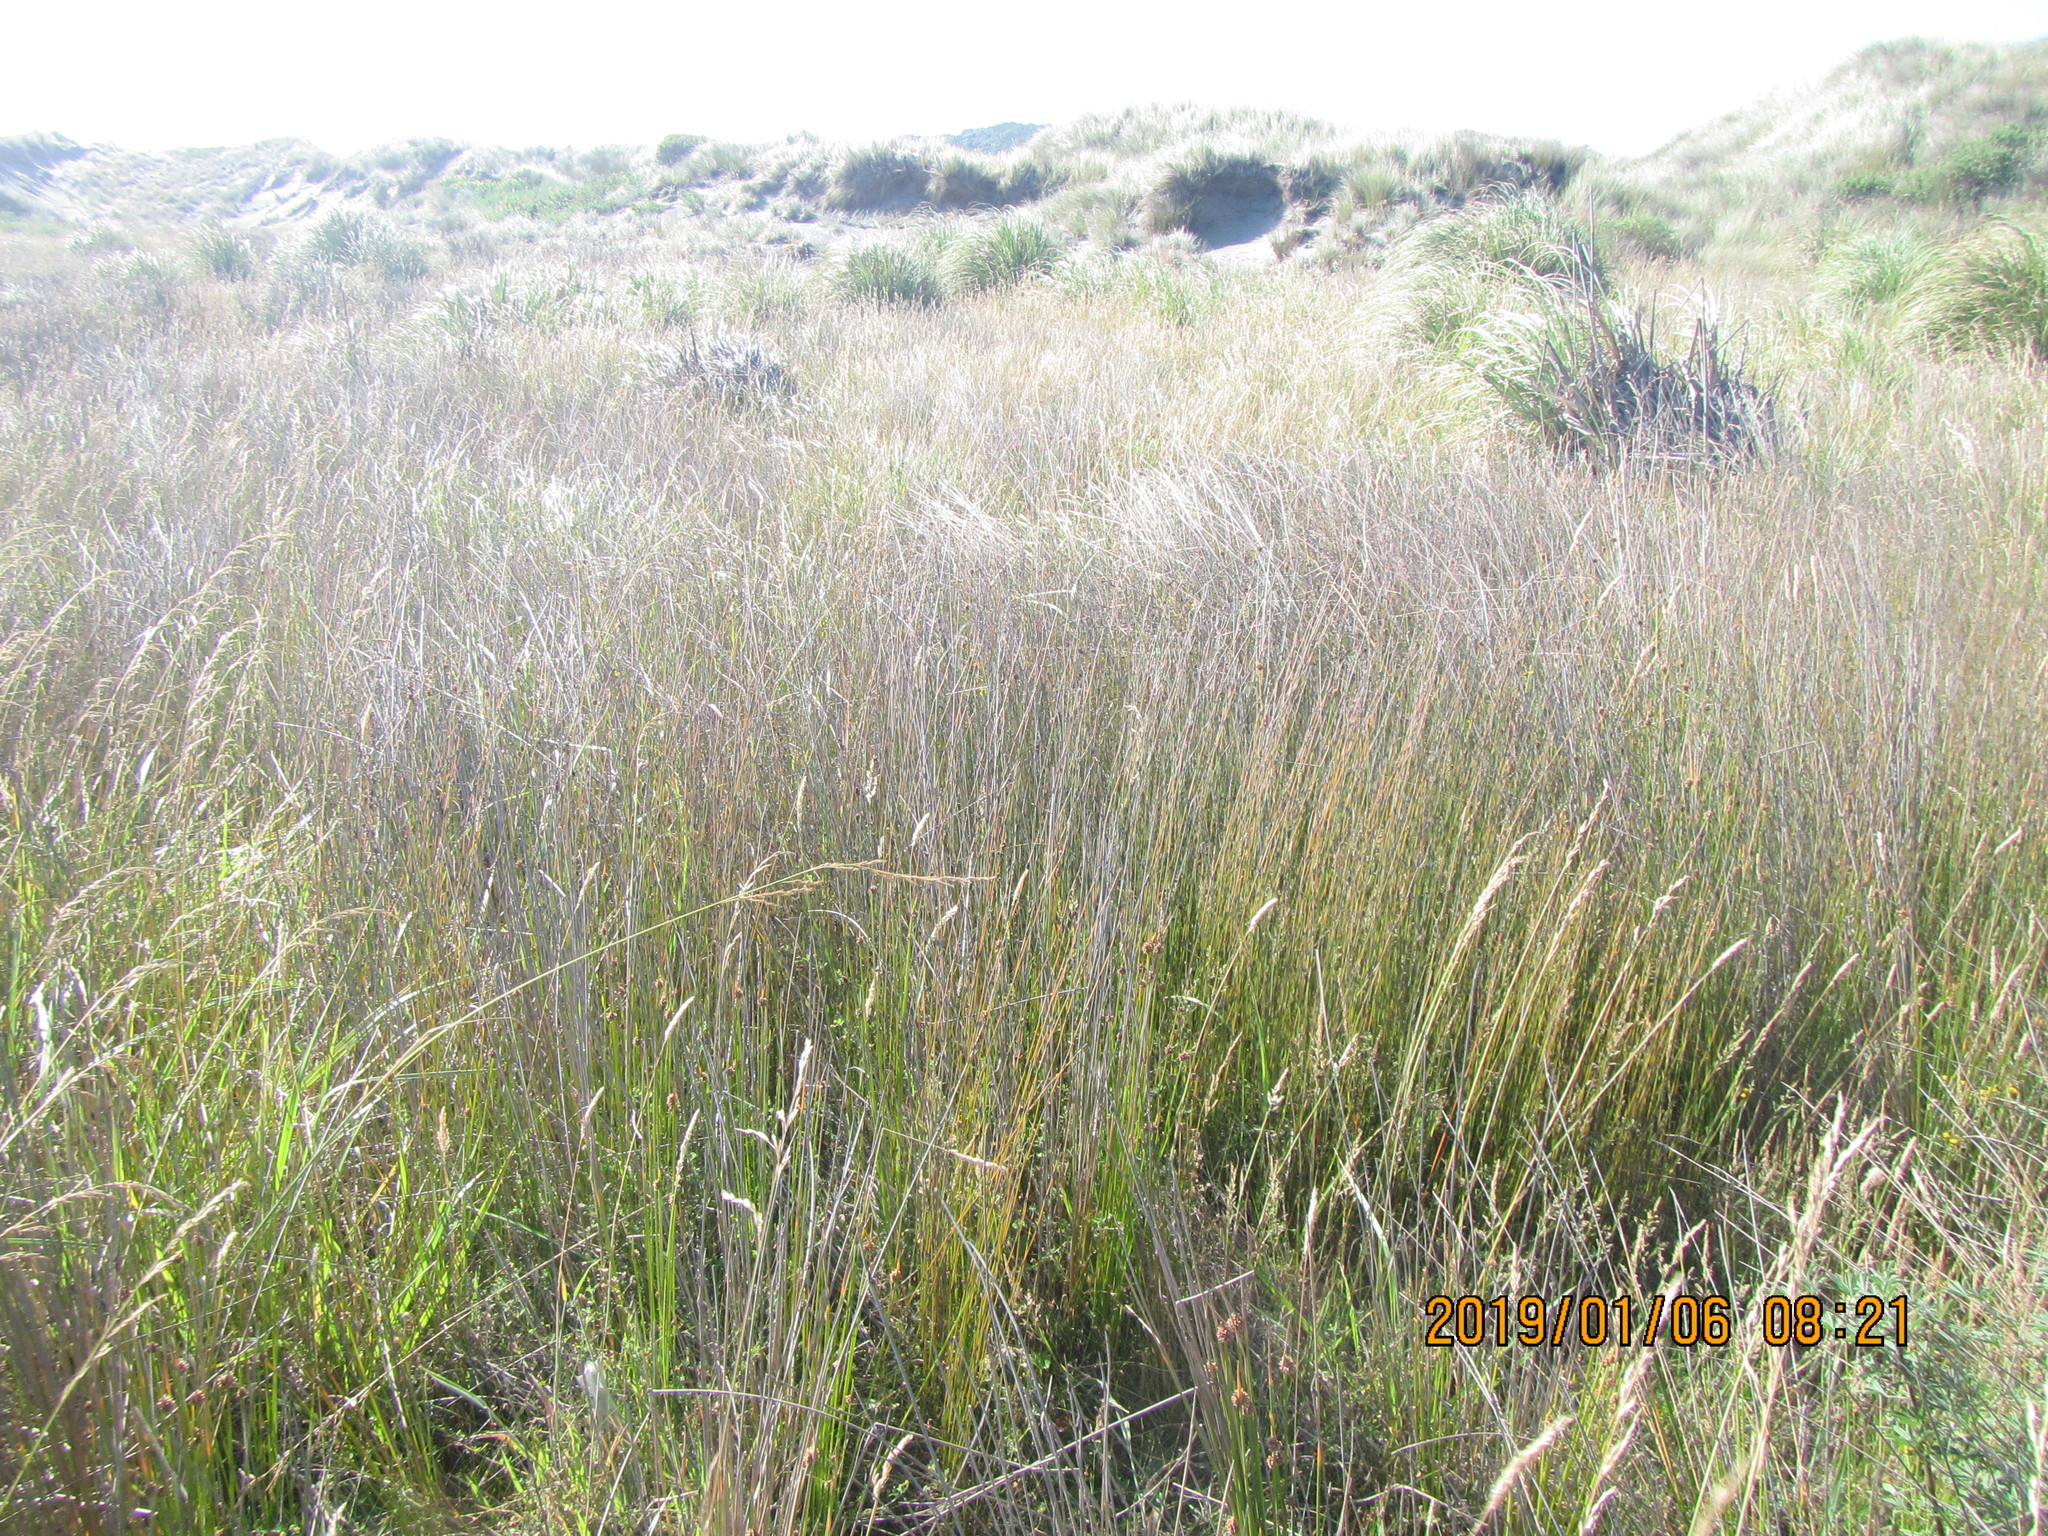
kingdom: Plantae
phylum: Tracheophyta
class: Liliopsida
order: Poales
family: Restionaceae
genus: Apodasmia
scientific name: Apodasmia similis
